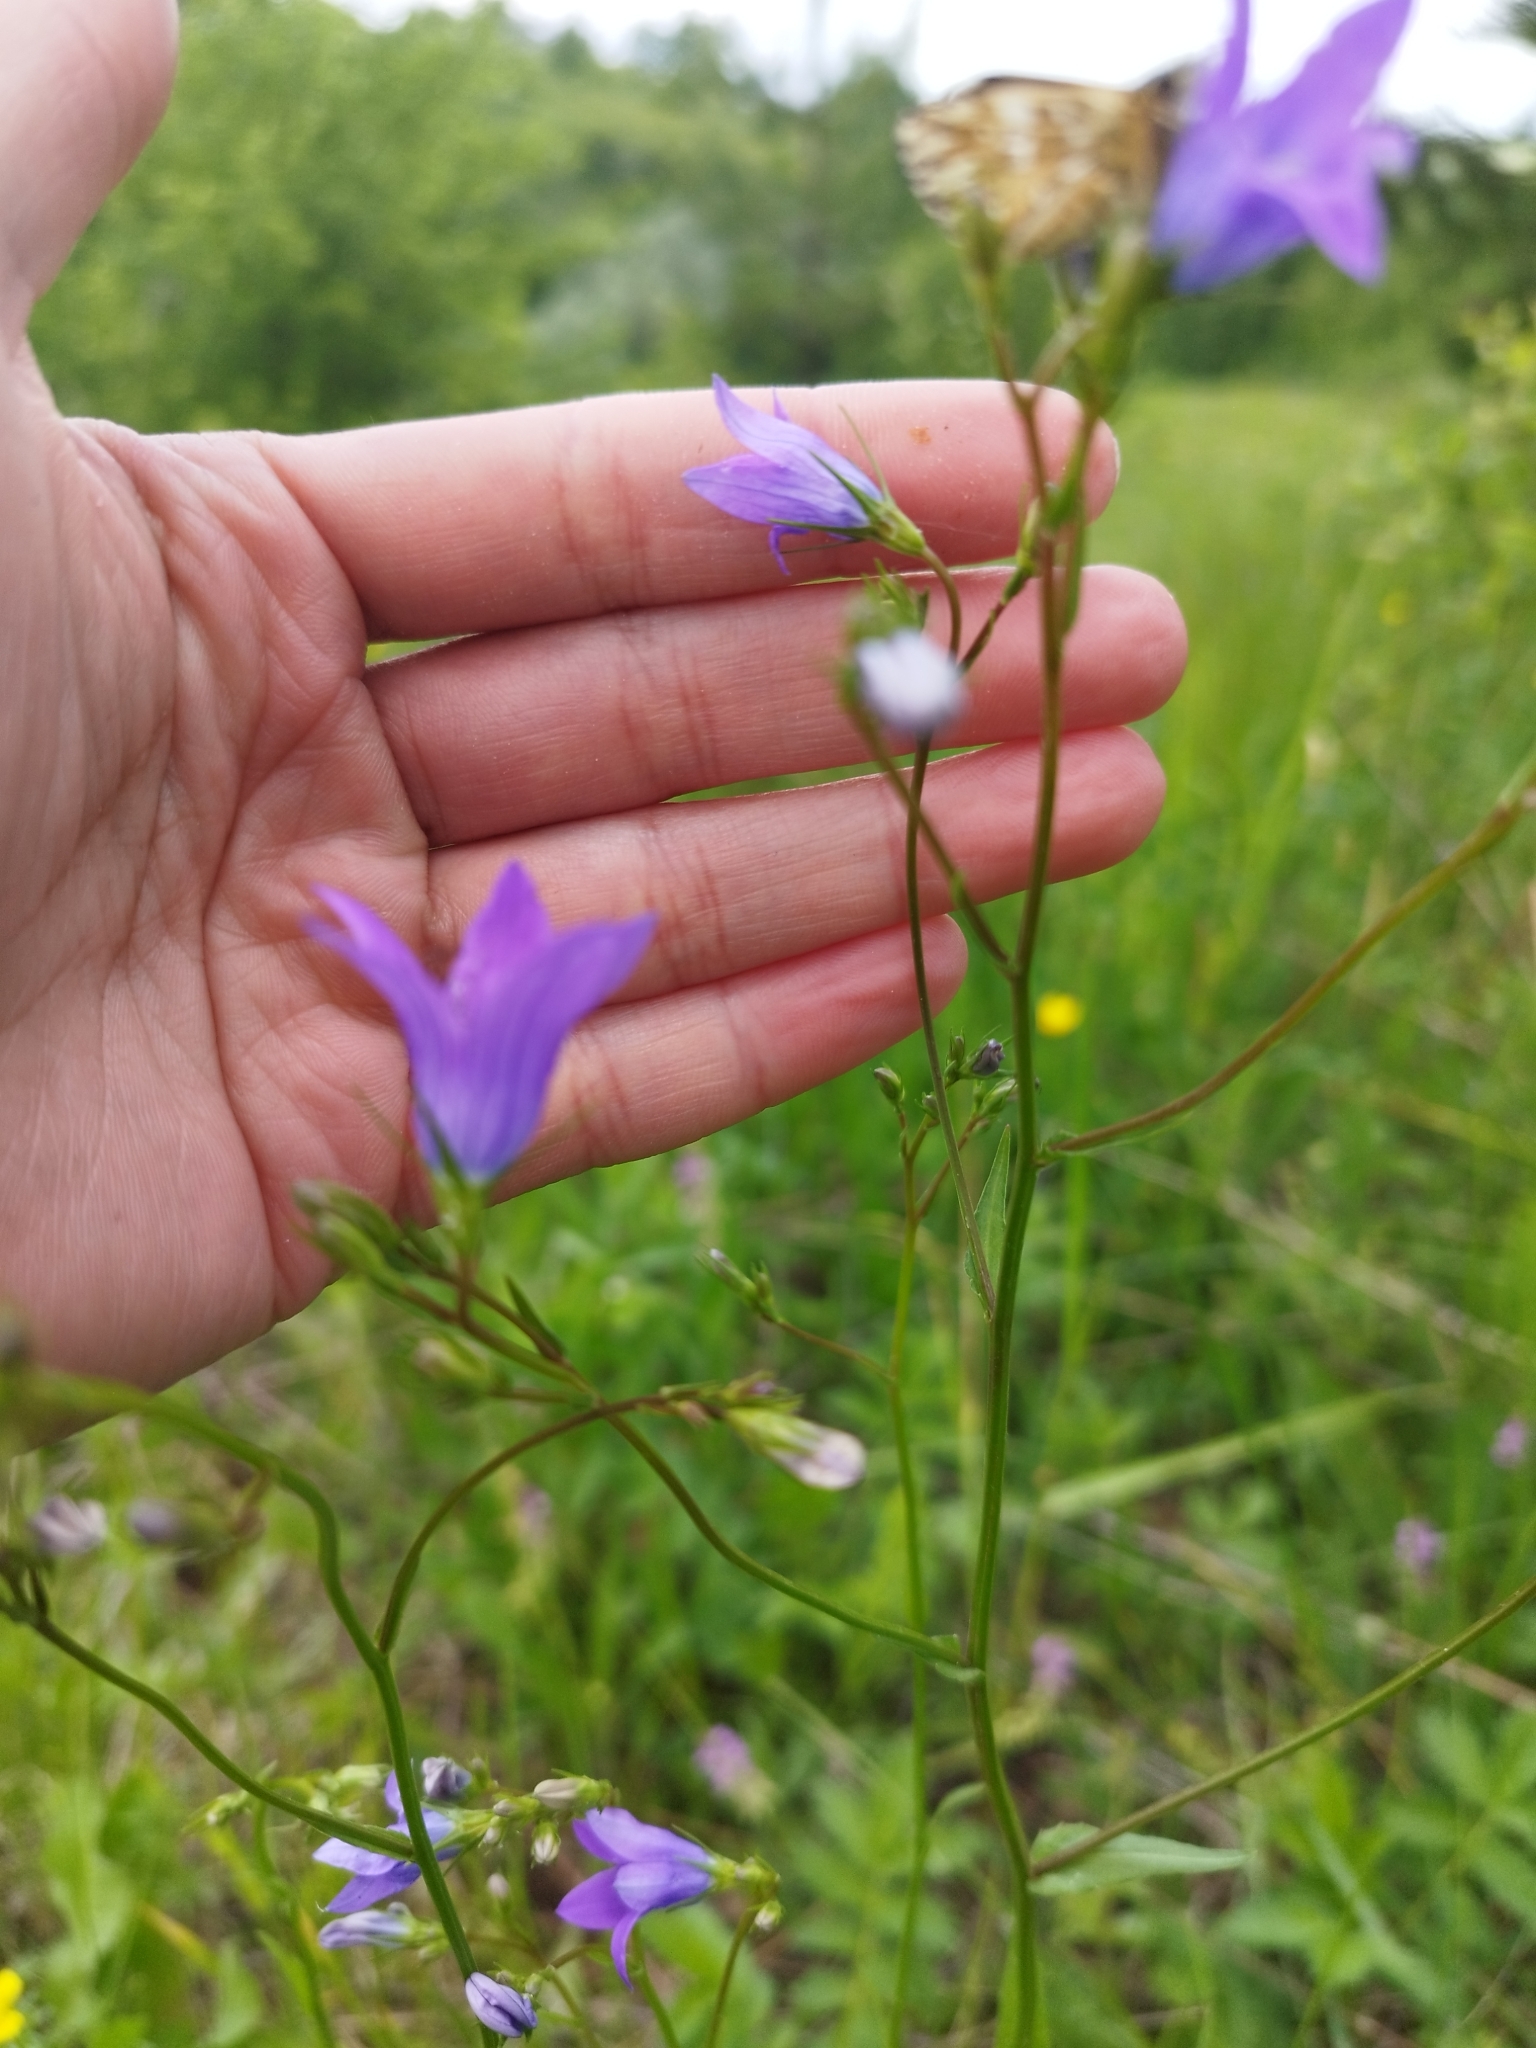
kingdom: Plantae
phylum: Tracheophyta
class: Magnoliopsida
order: Asterales
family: Campanulaceae
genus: Campanula
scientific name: Campanula patula
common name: Spreading bellflower
